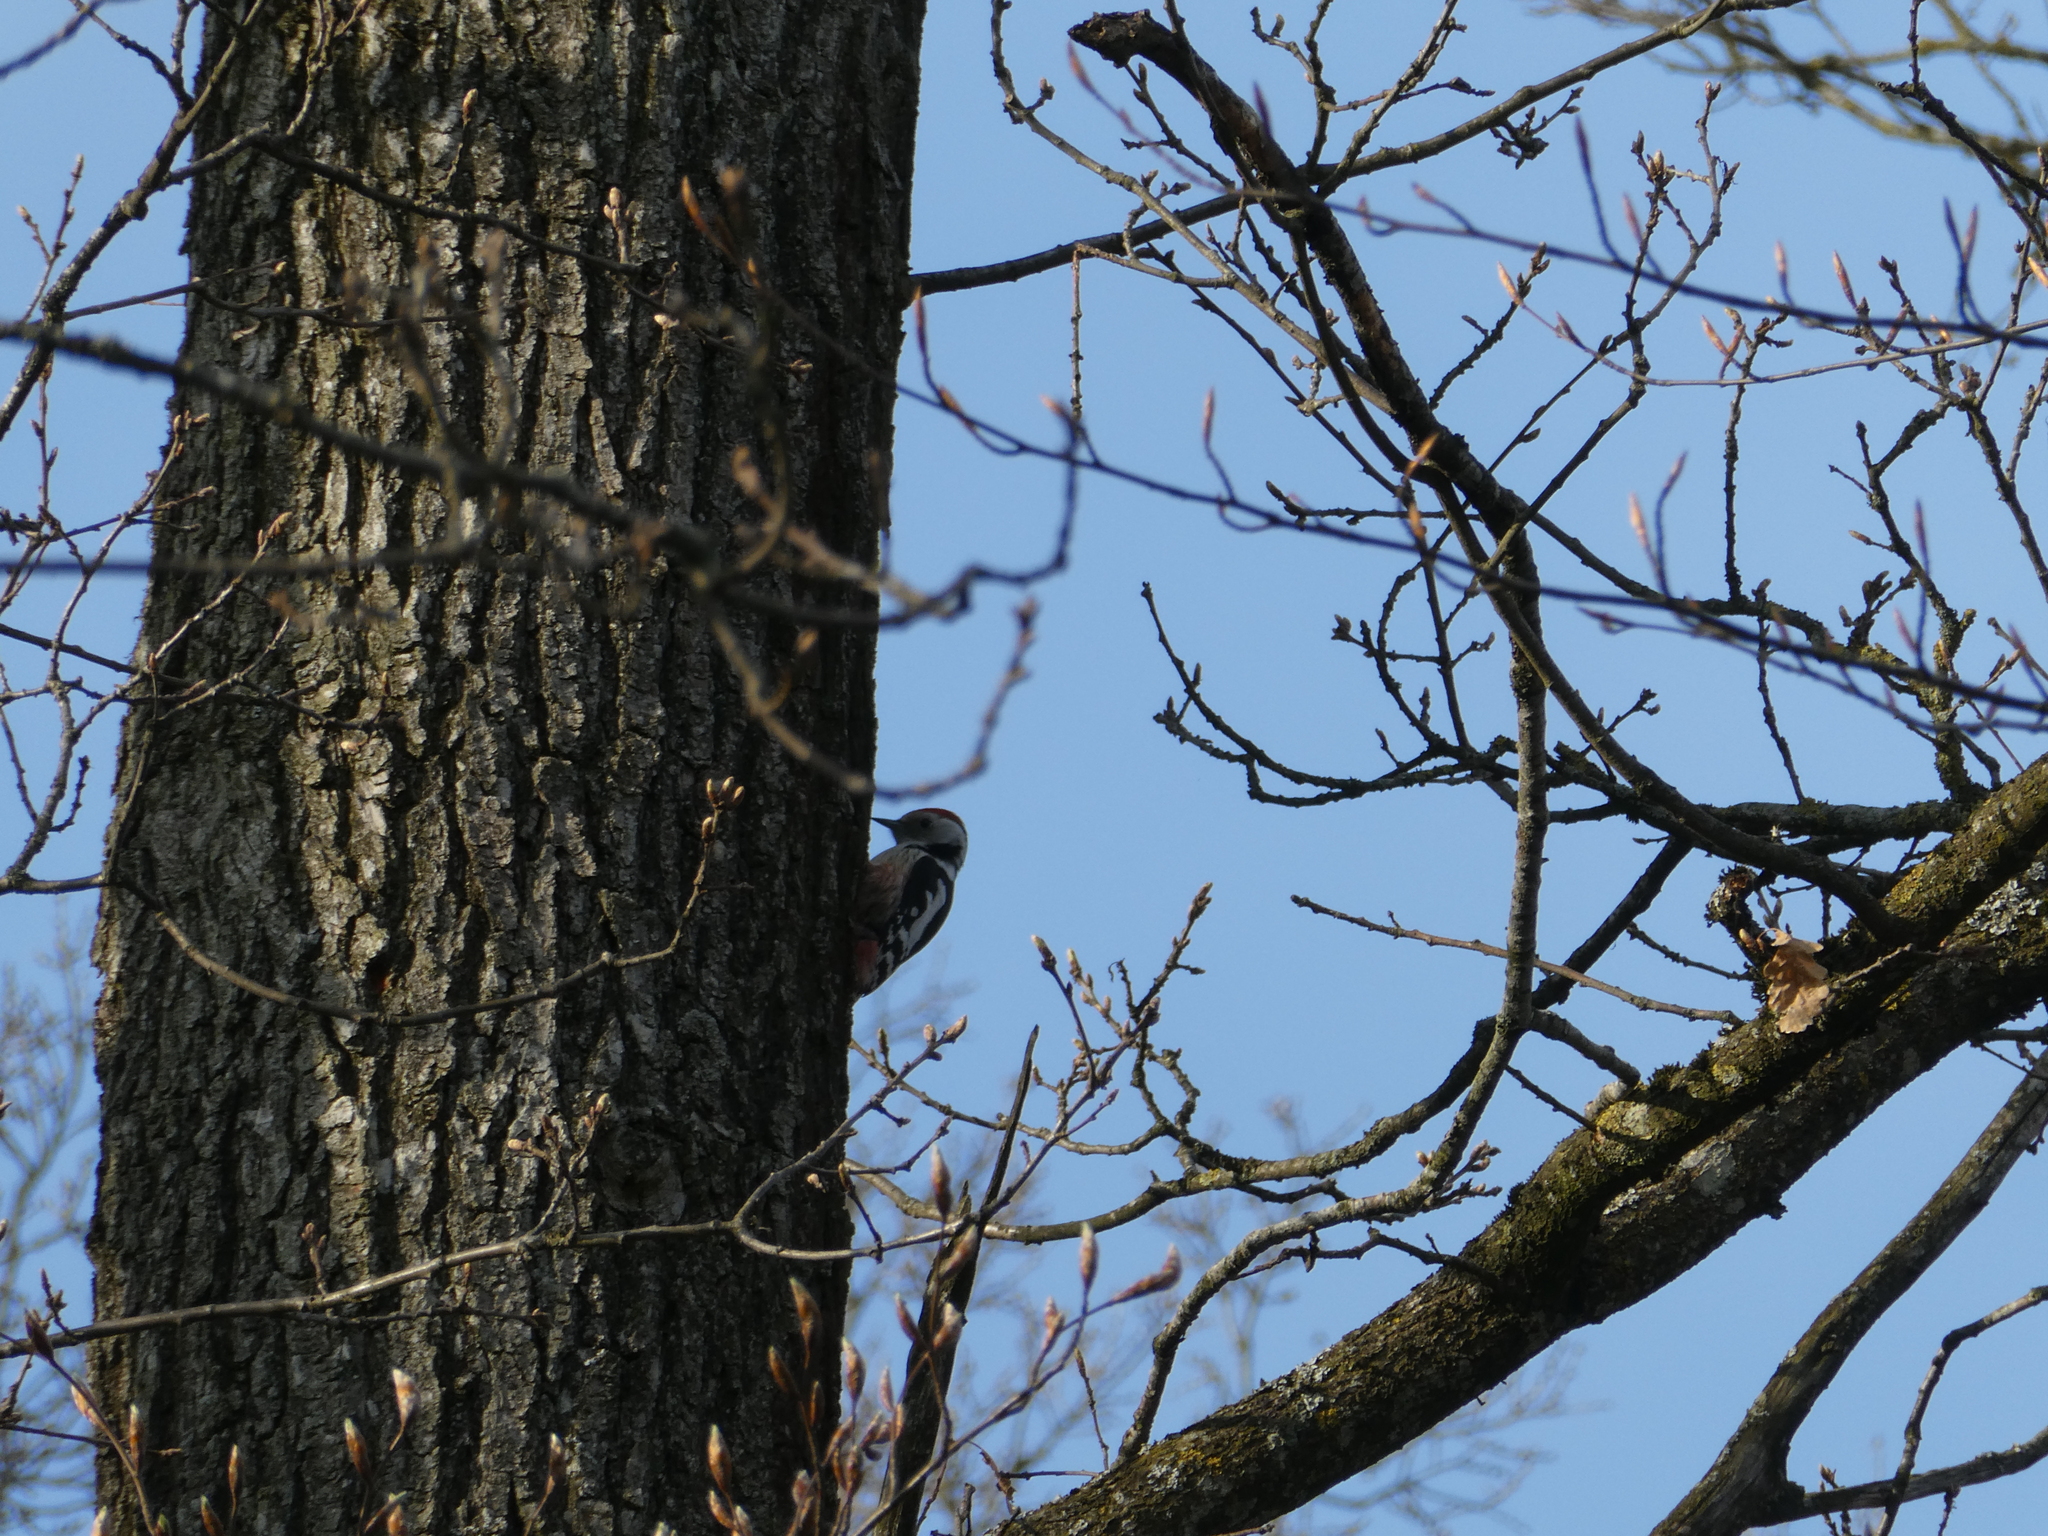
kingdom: Animalia
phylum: Chordata
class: Aves
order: Piciformes
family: Picidae
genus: Dendrocoptes
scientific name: Dendrocoptes medius
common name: Middle spotted woodpecker
